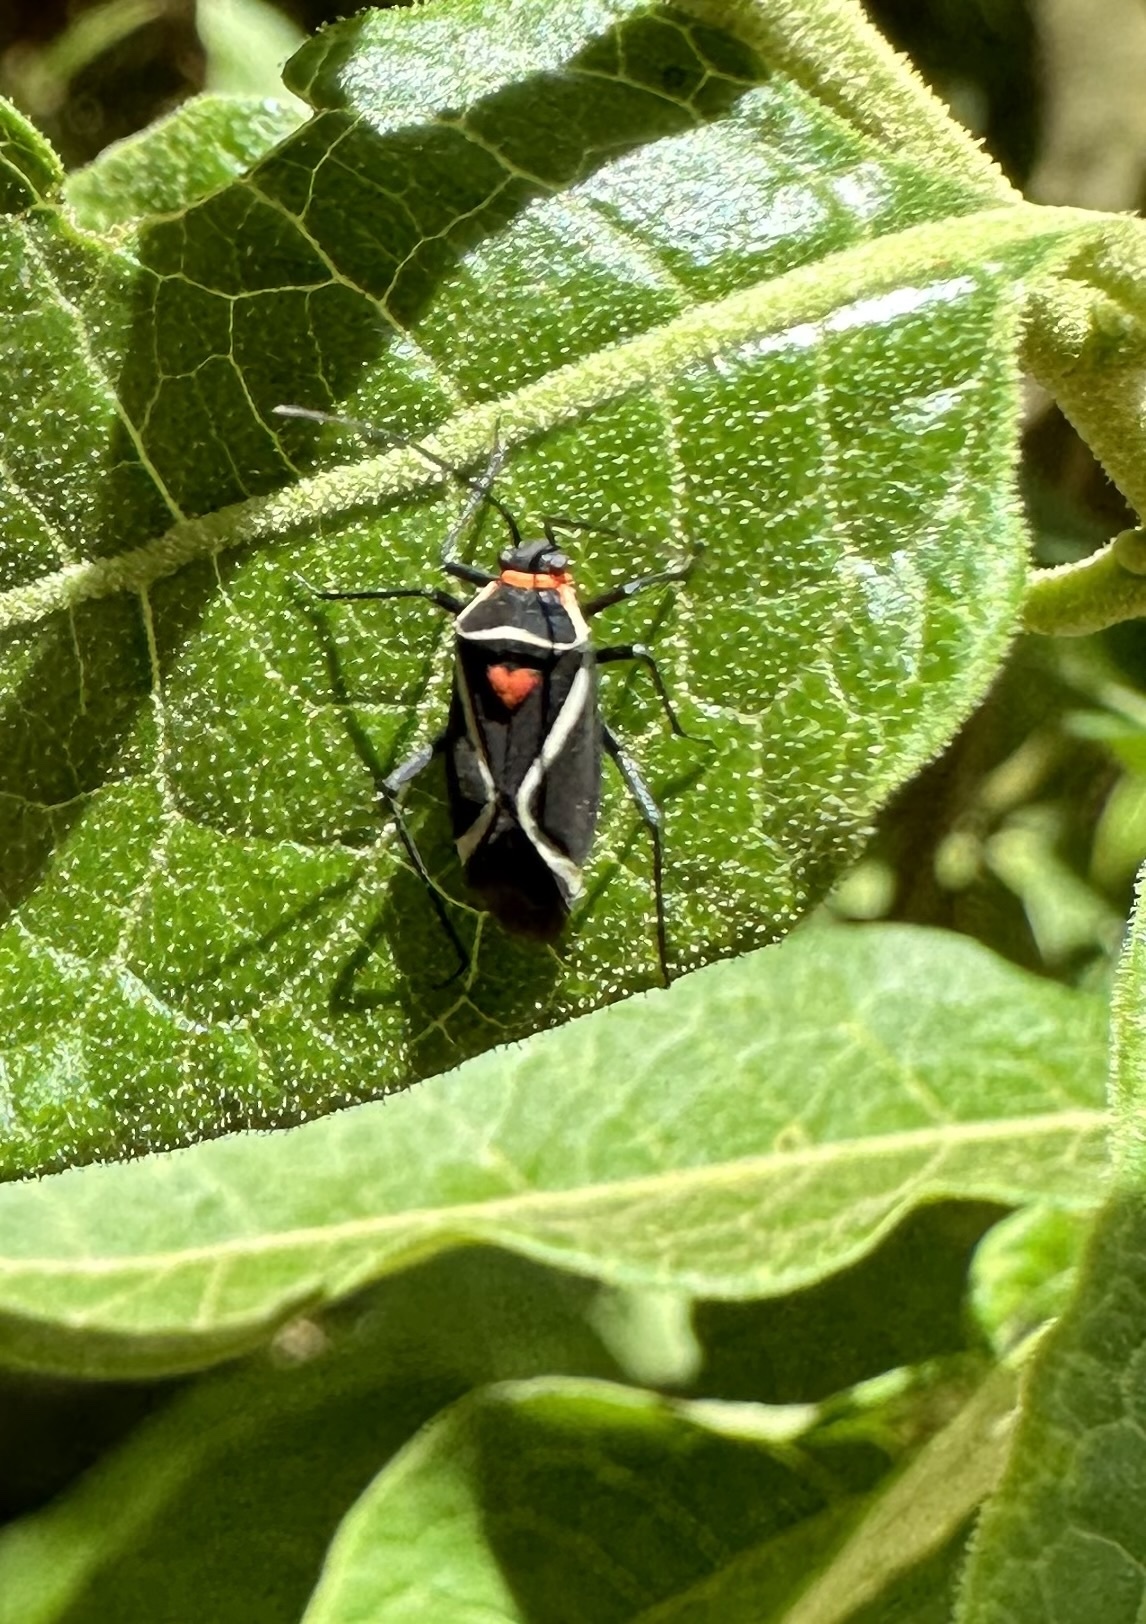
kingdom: Animalia
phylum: Arthropoda
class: Insecta
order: Hemiptera
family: Miridae
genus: Eurylomata
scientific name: Eurylomata picturata
